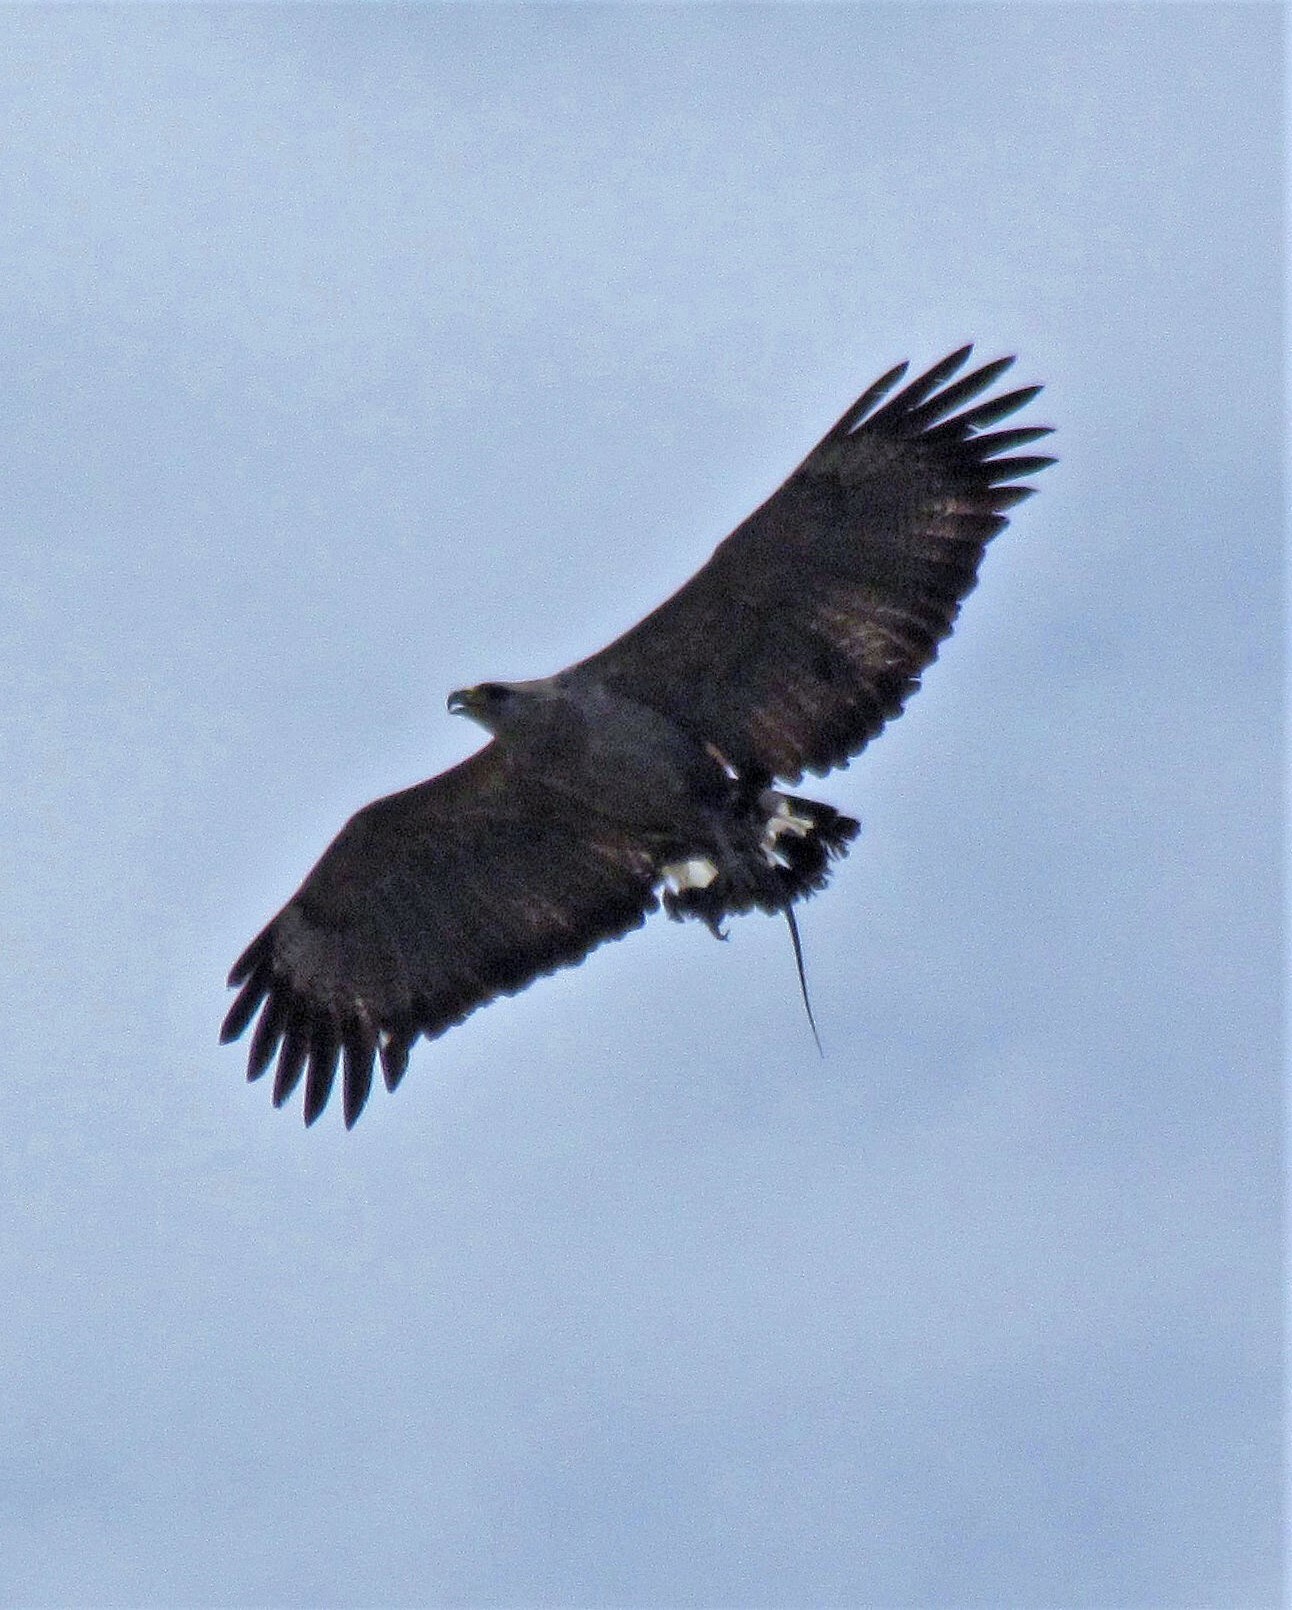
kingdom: Animalia
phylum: Chordata
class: Aves
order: Accipitriformes
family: Accipitridae
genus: Harpyhaliaetus
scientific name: Harpyhaliaetus coronatus
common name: Crowned solitary eagle
